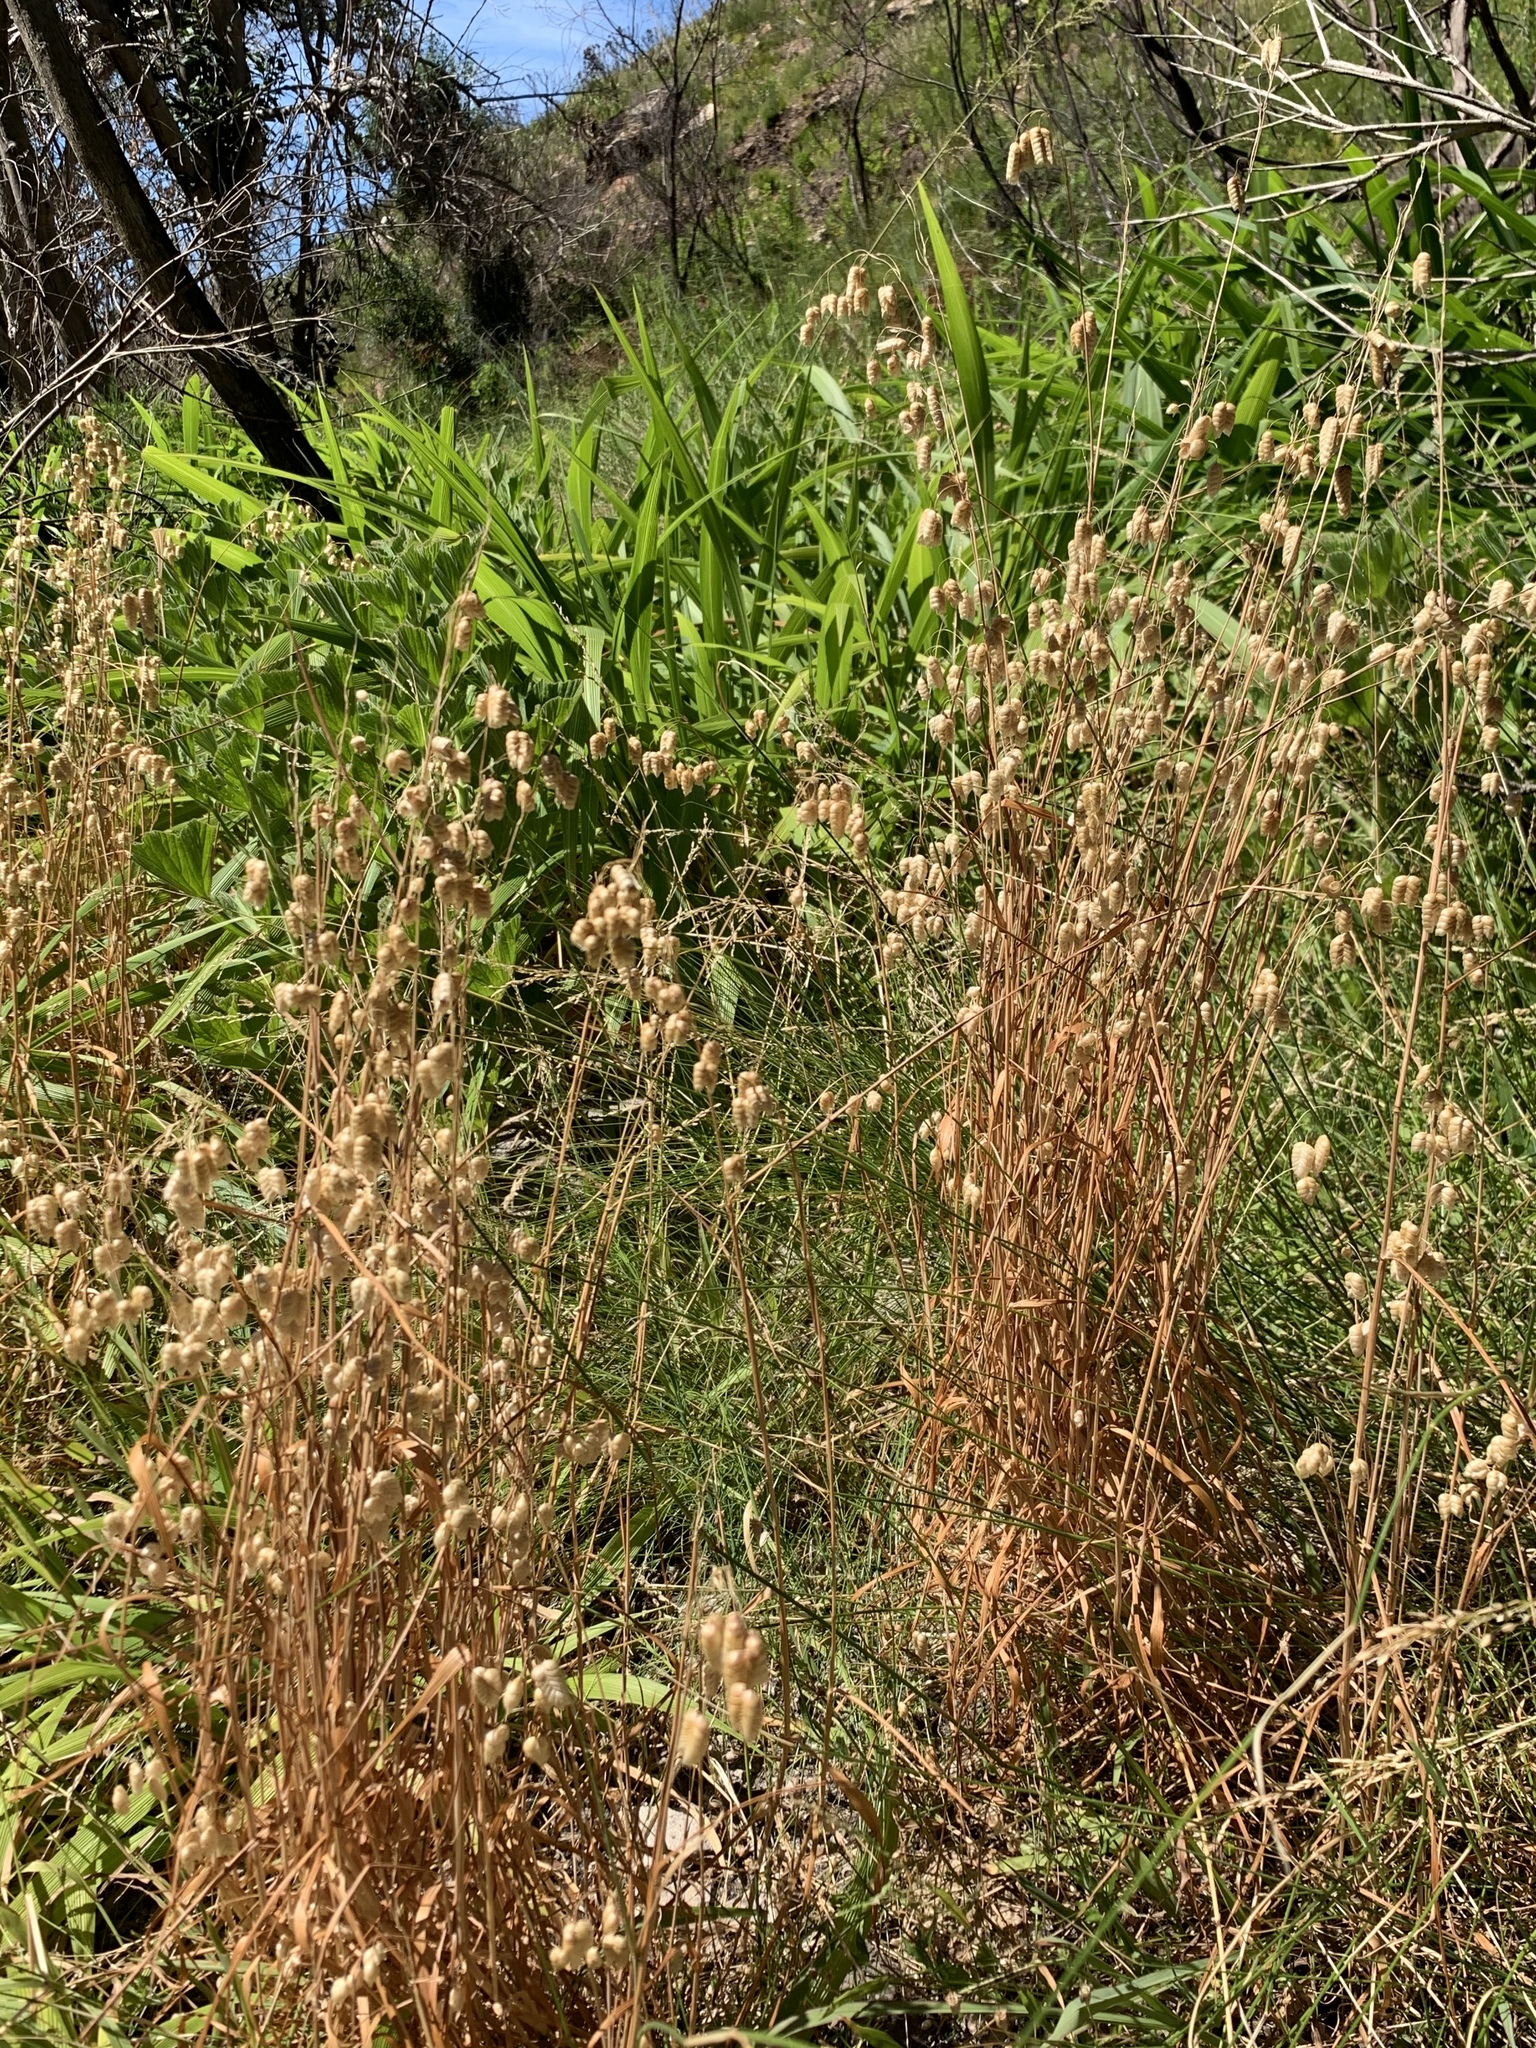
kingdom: Plantae
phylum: Tracheophyta
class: Liliopsida
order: Poales
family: Poaceae
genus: Briza
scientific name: Briza maxima
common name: Big quakinggrass
